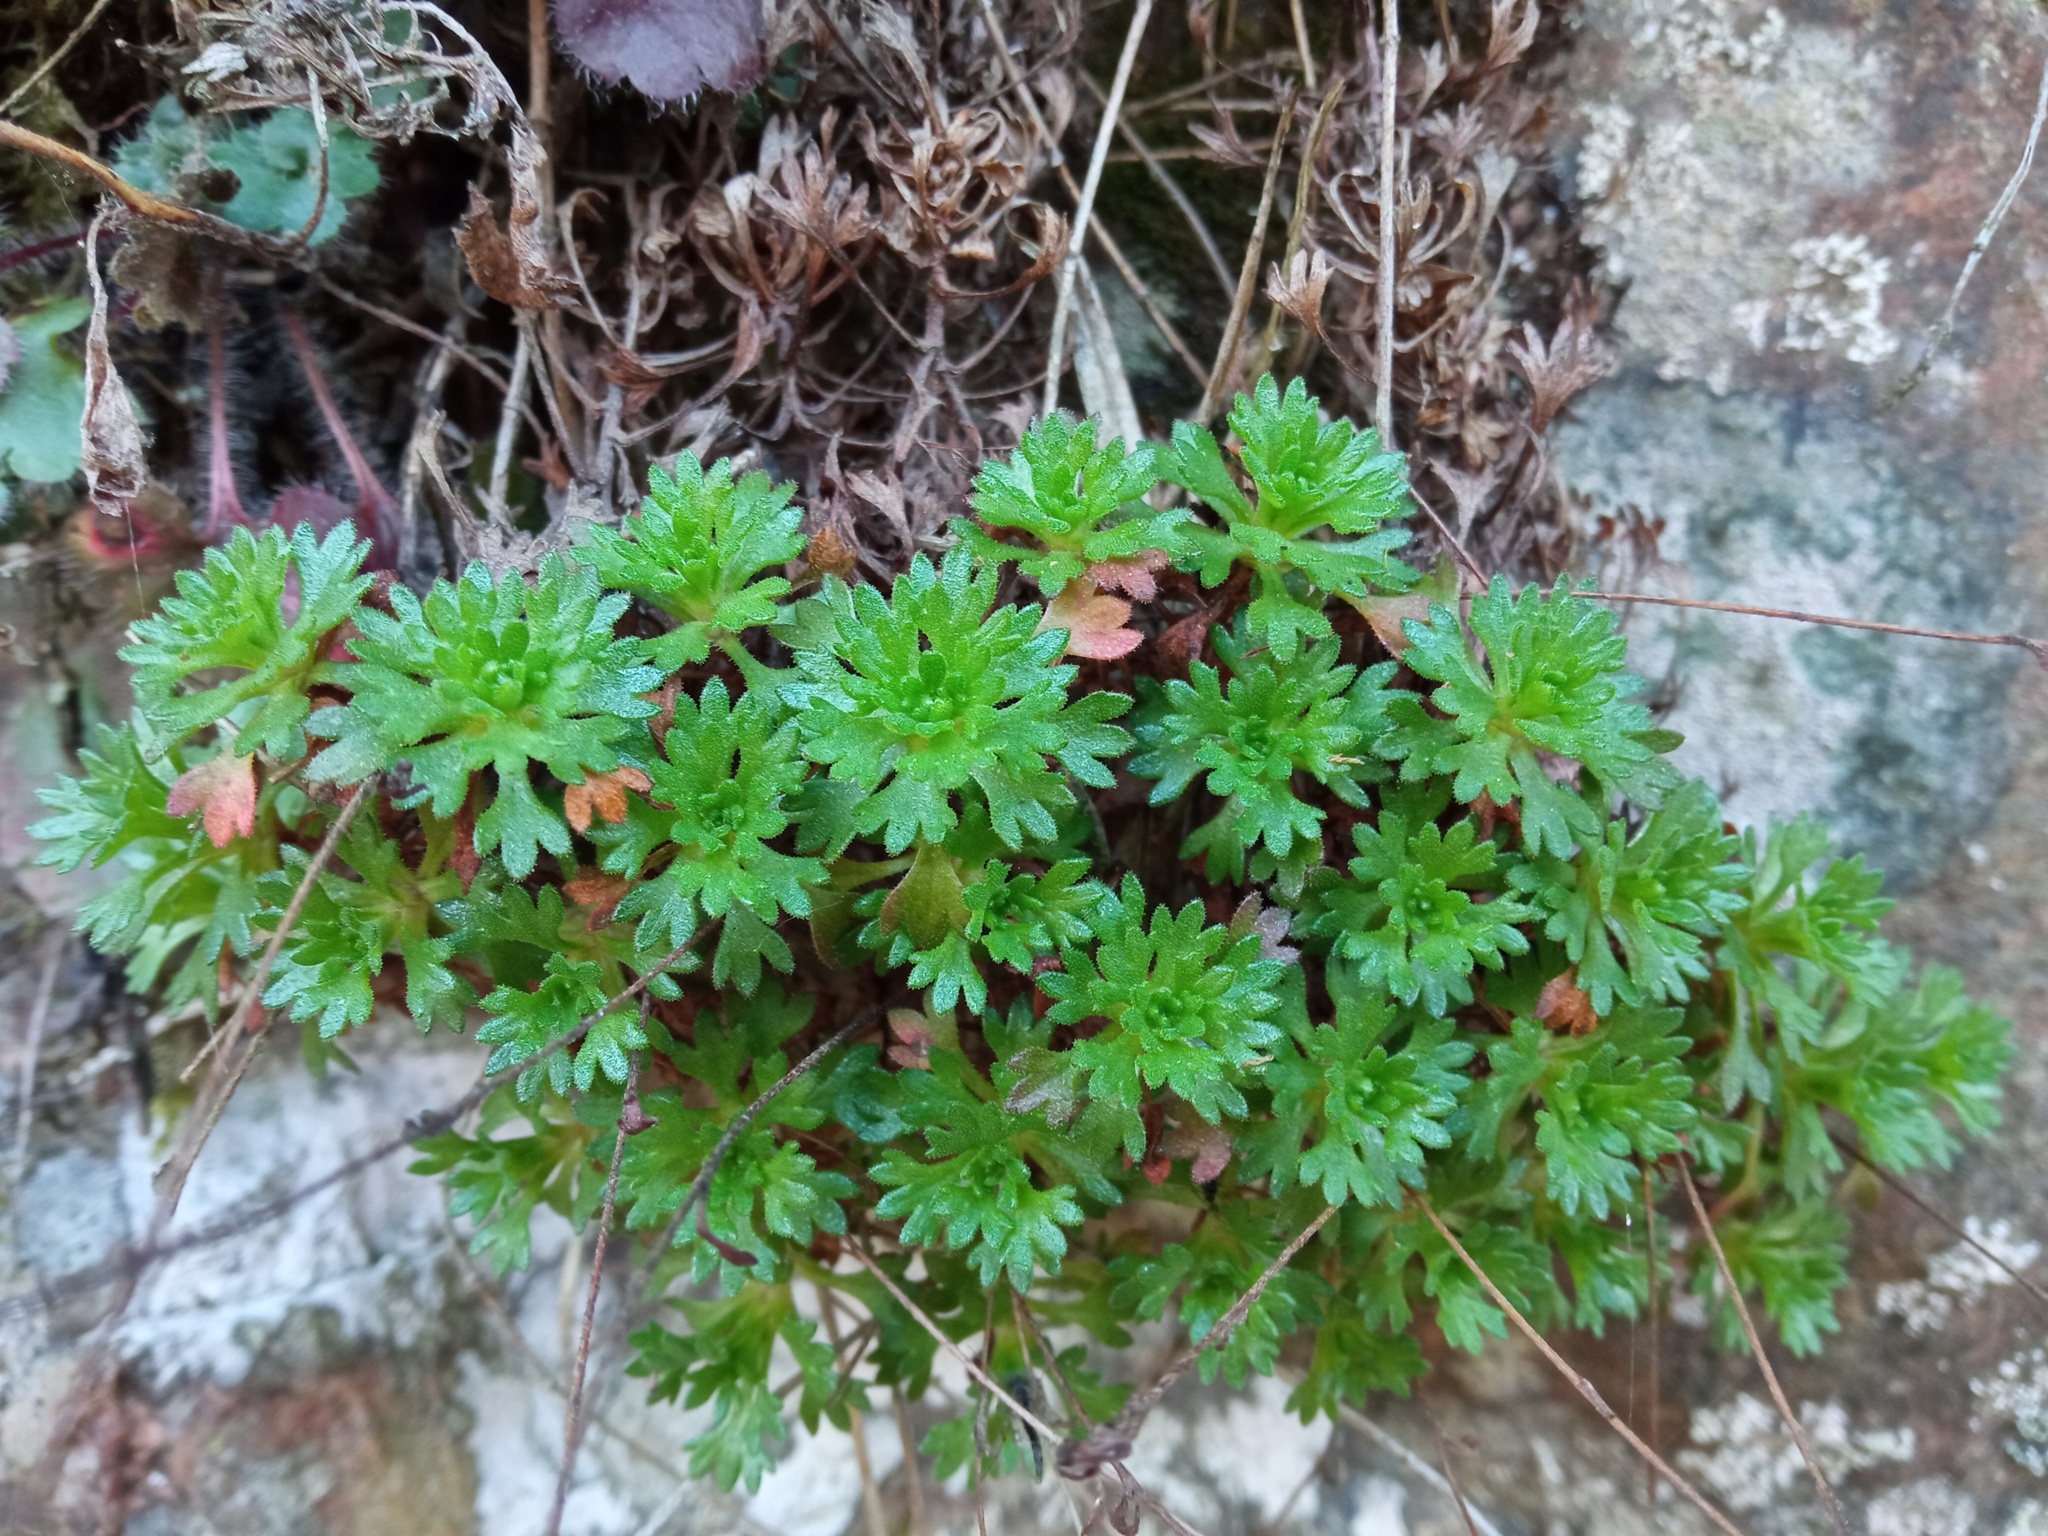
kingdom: Plantae
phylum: Tracheophyta
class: Magnoliopsida
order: Saxifragales
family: Saxifragaceae
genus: Saxifraga
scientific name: Saxifraga vayredana
